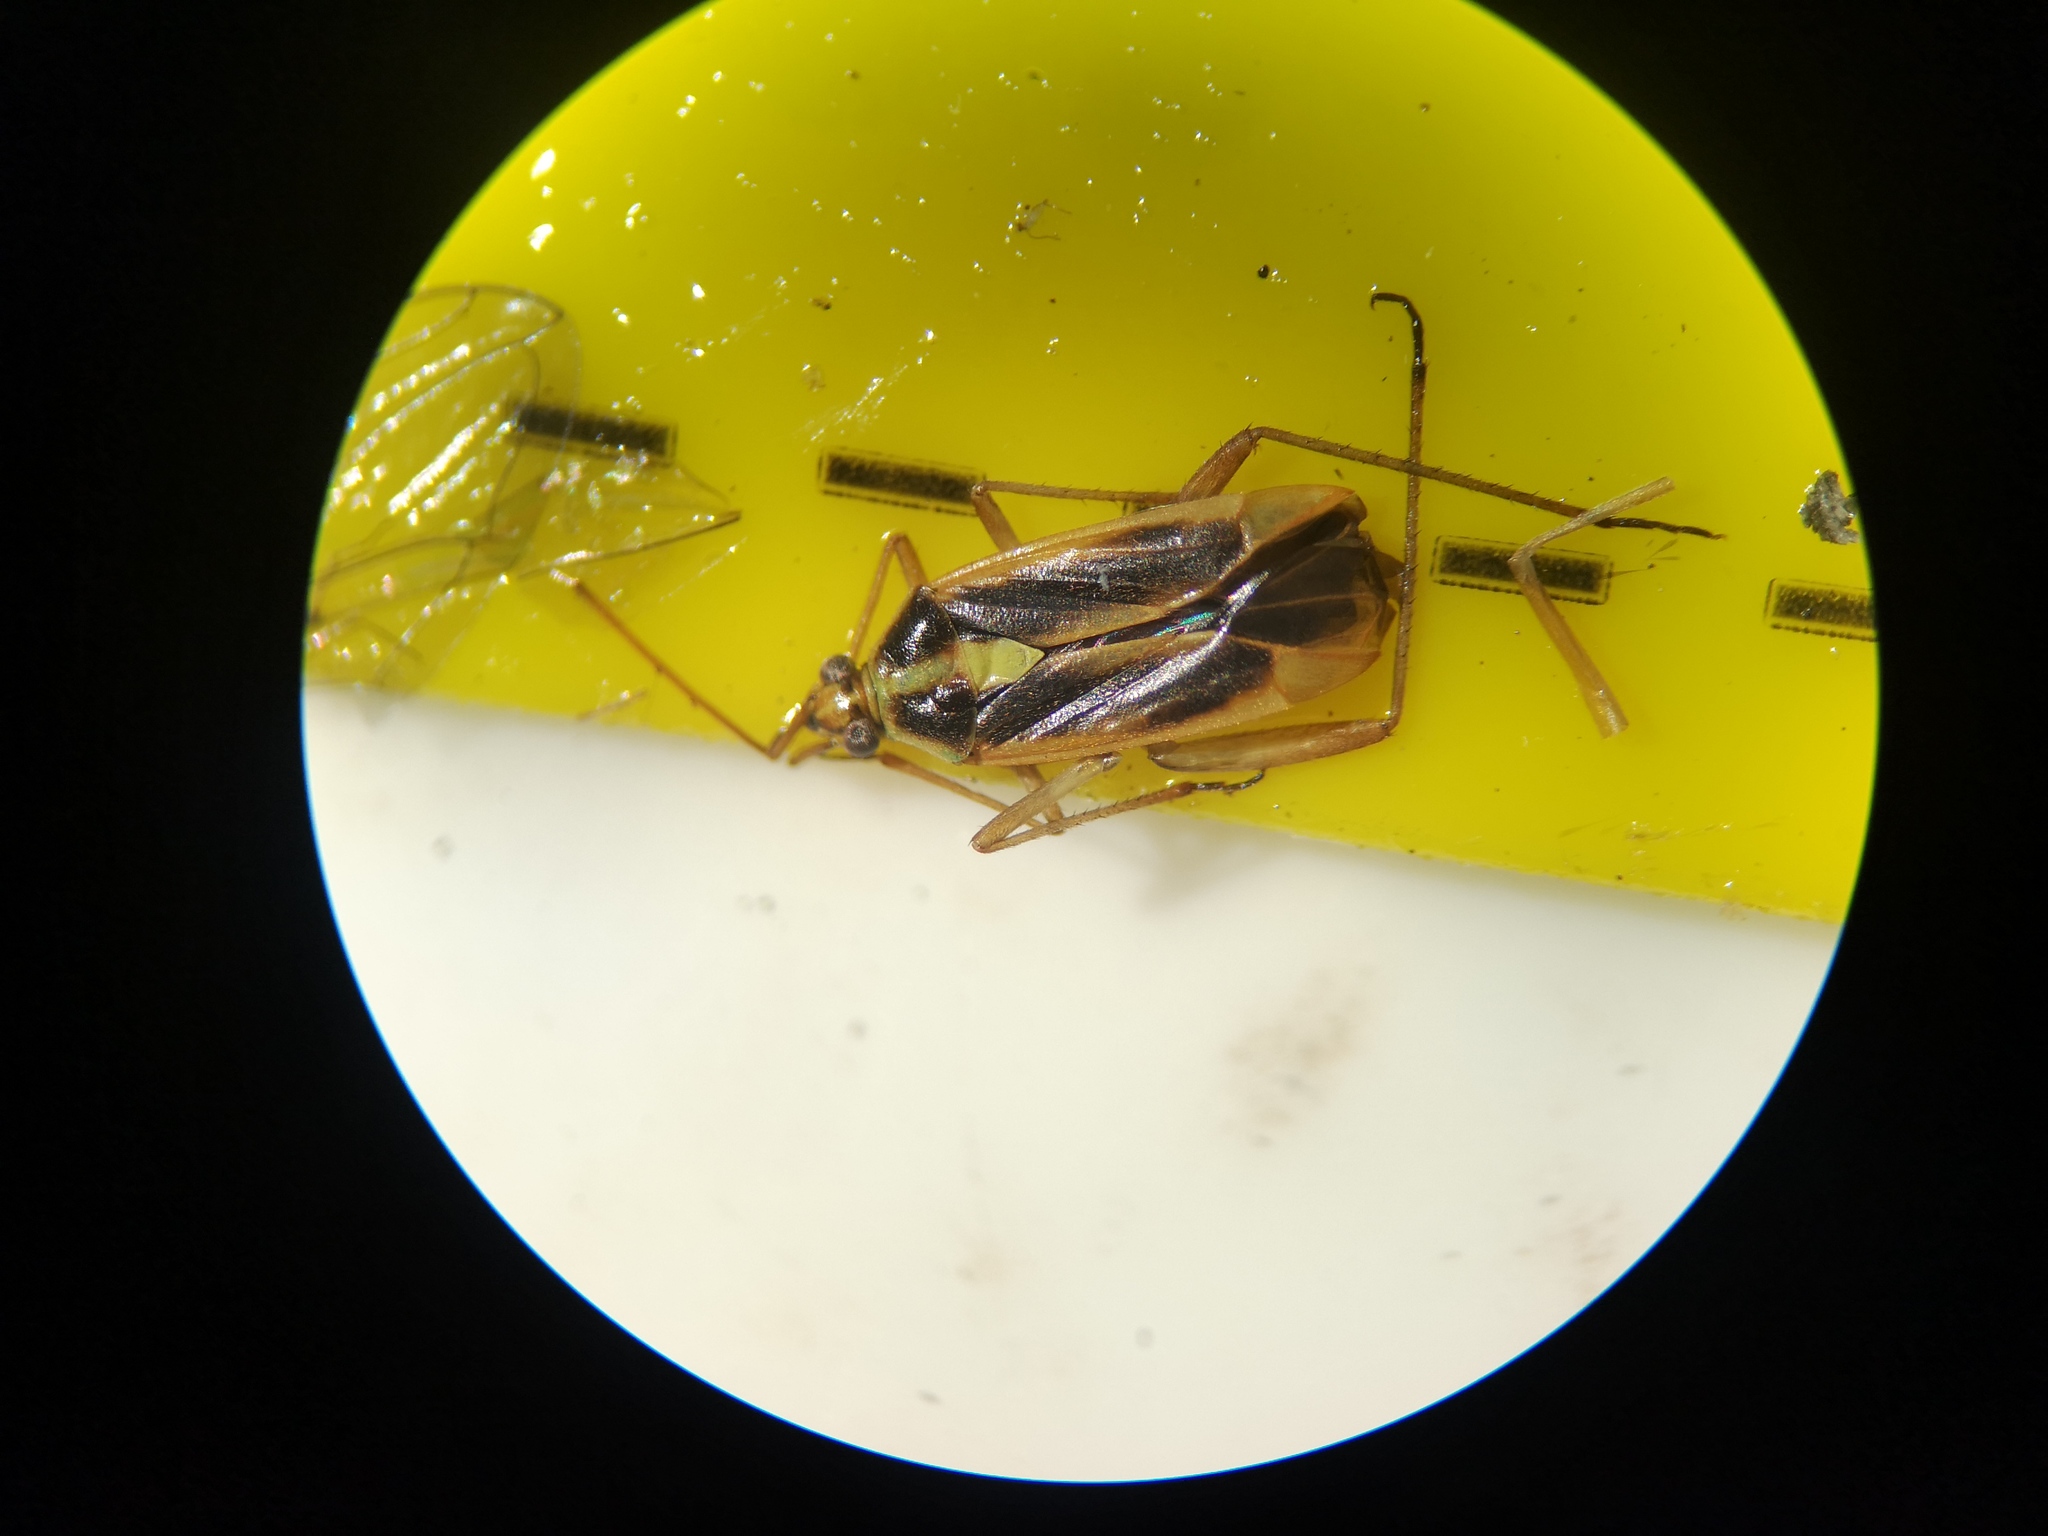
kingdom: Animalia
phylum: Arthropoda
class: Insecta
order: Hemiptera
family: Miridae
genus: Stenotus
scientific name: Stenotus binotatus
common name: Plant bug
